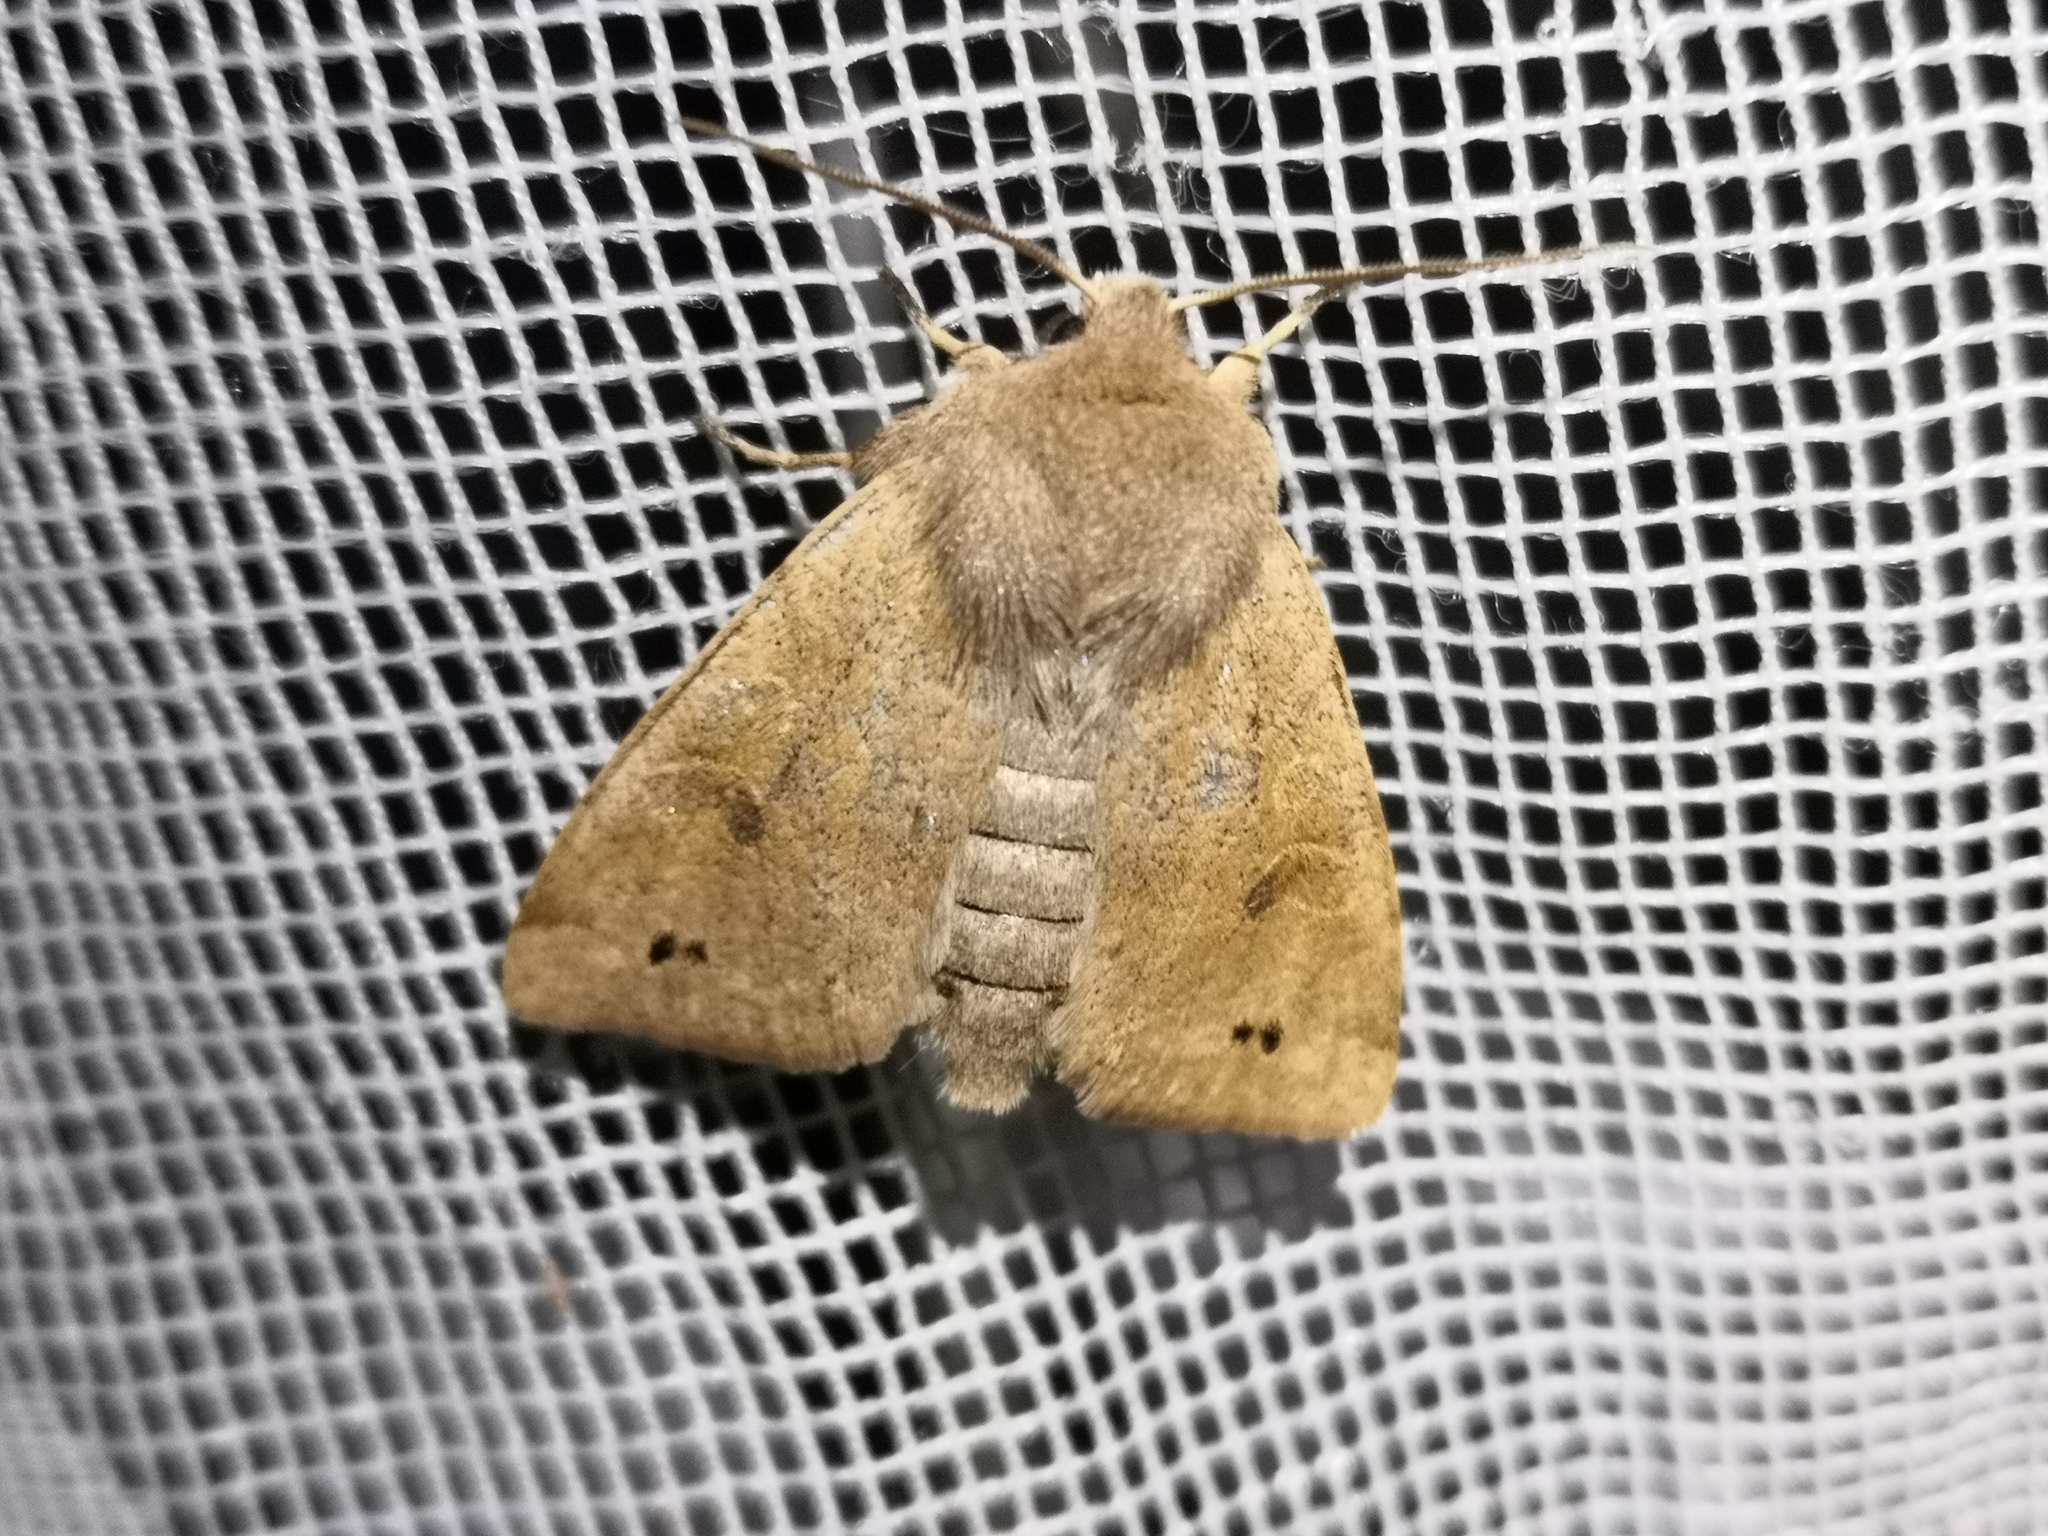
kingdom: Animalia
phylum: Arthropoda
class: Insecta
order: Lepidoptera
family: Noctuidae
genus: Anorthoa
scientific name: Anorthoa munda
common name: Twin-spotted quaker
